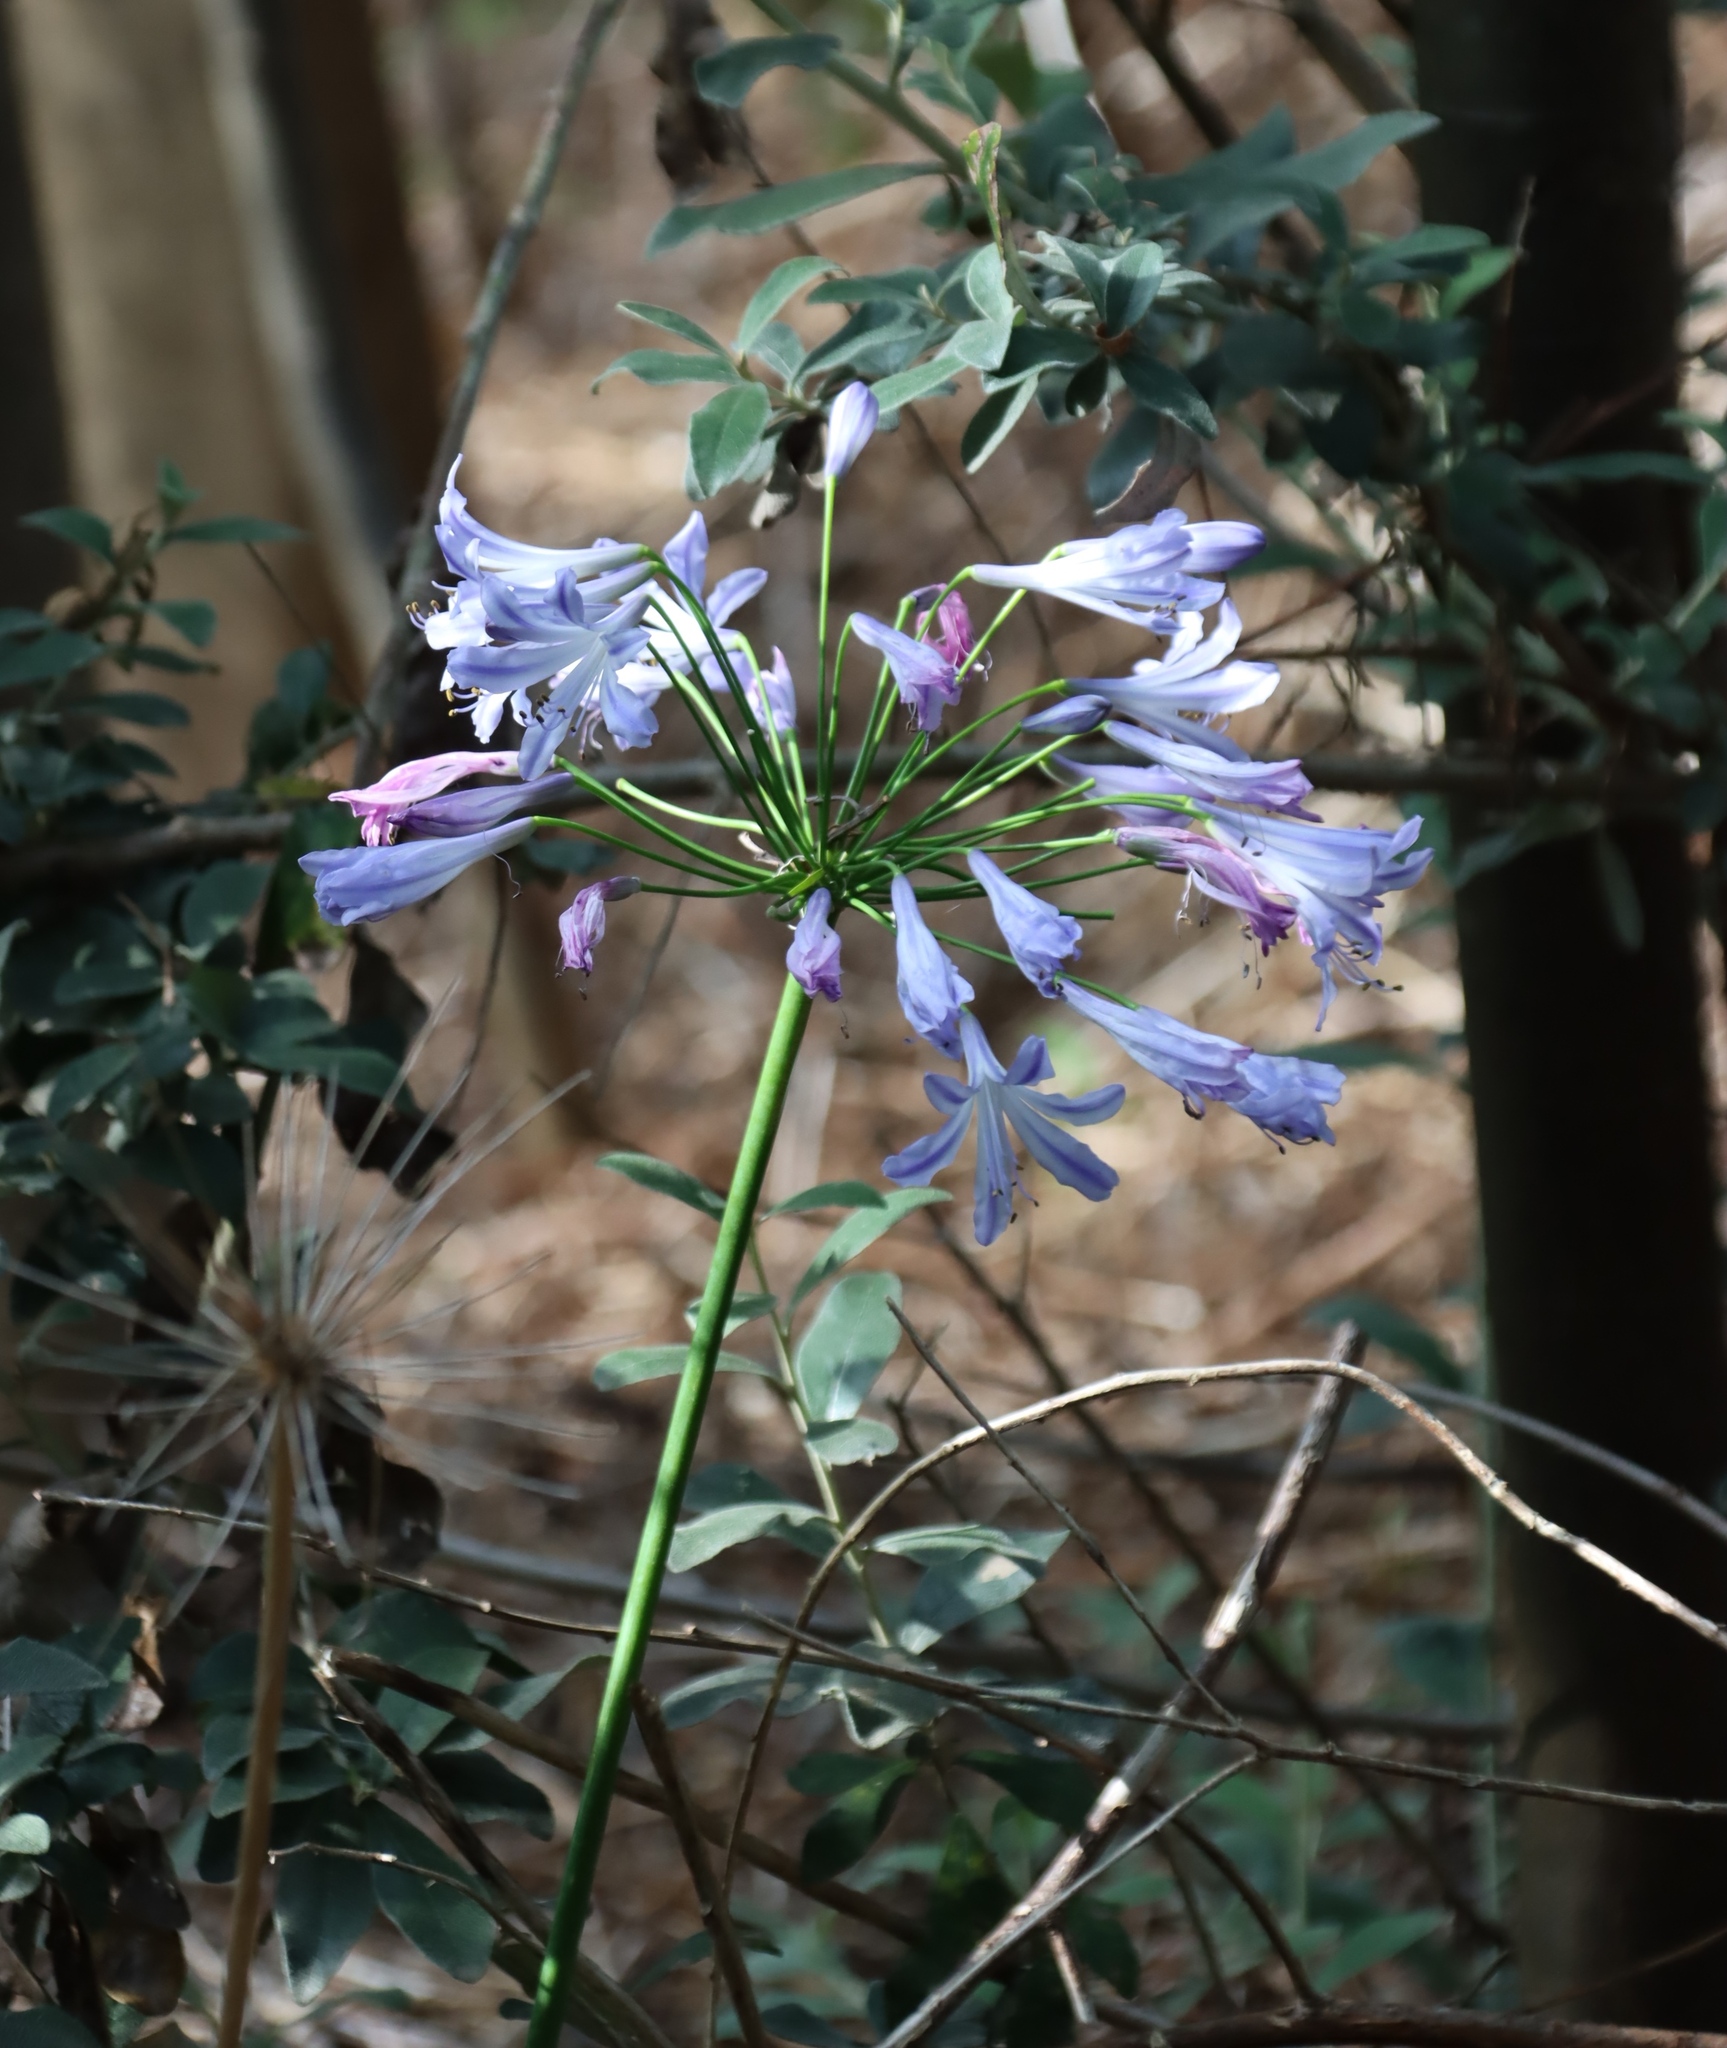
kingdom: Plantae
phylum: Tracheophyta
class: Liliopsida
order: Asparagales
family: Amaryllidaceae
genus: Agapanthus
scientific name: Agapanthus praecox
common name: African-lily
